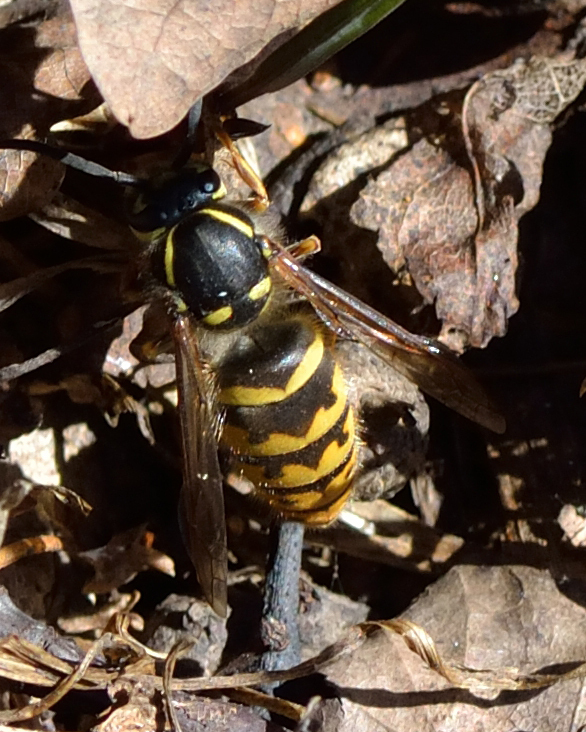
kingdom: Animalia
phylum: Arthropoda
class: Insecta
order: Hymenoptera
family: Vespidae
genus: Vespula
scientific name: Vespula vulgaris
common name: Common wasp
